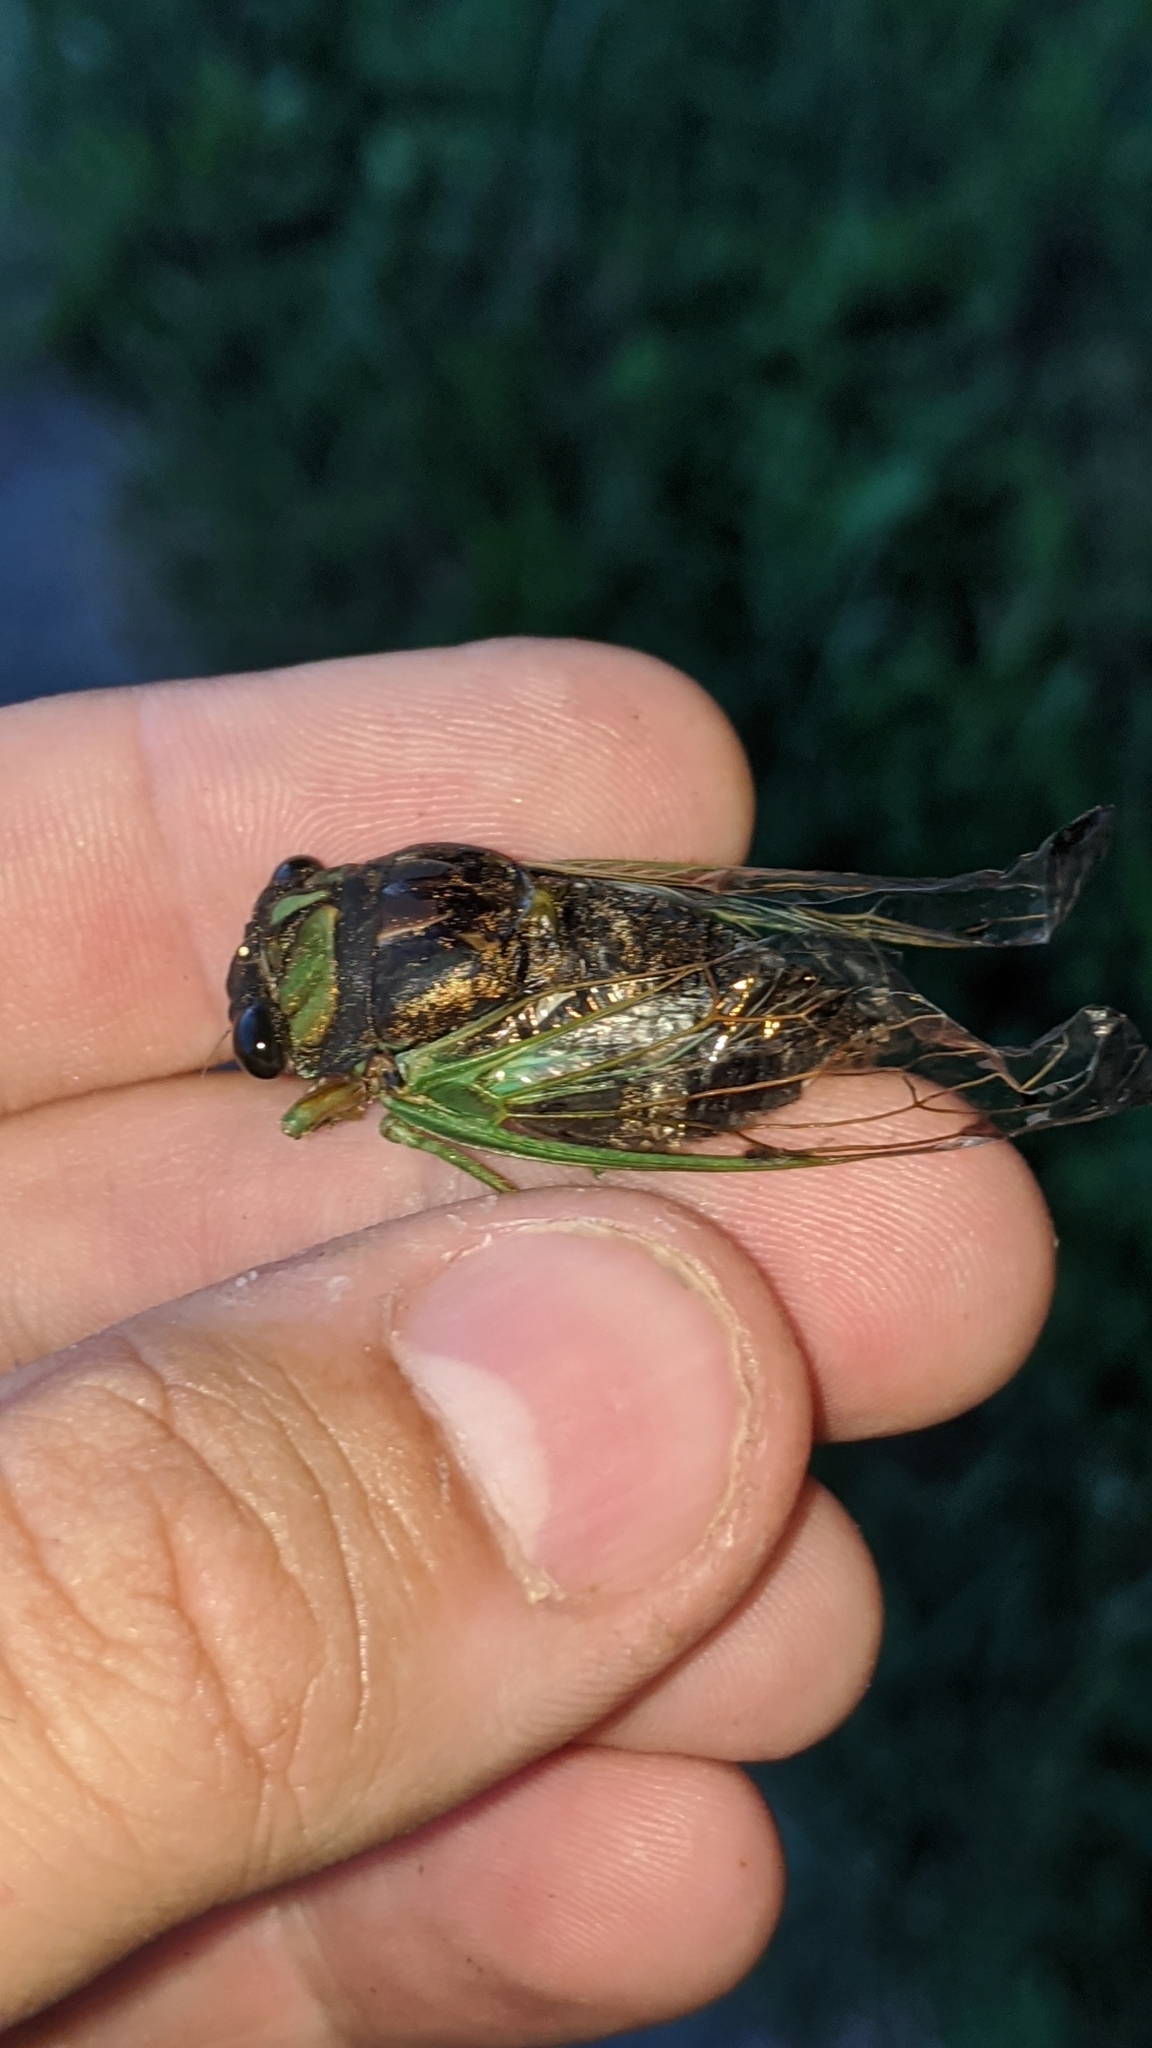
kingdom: Animalia
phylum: Arthropoda
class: Insecta
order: Hemiptera
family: Cicadidae
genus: Neotibicen
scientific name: Neotibicen tibicen
